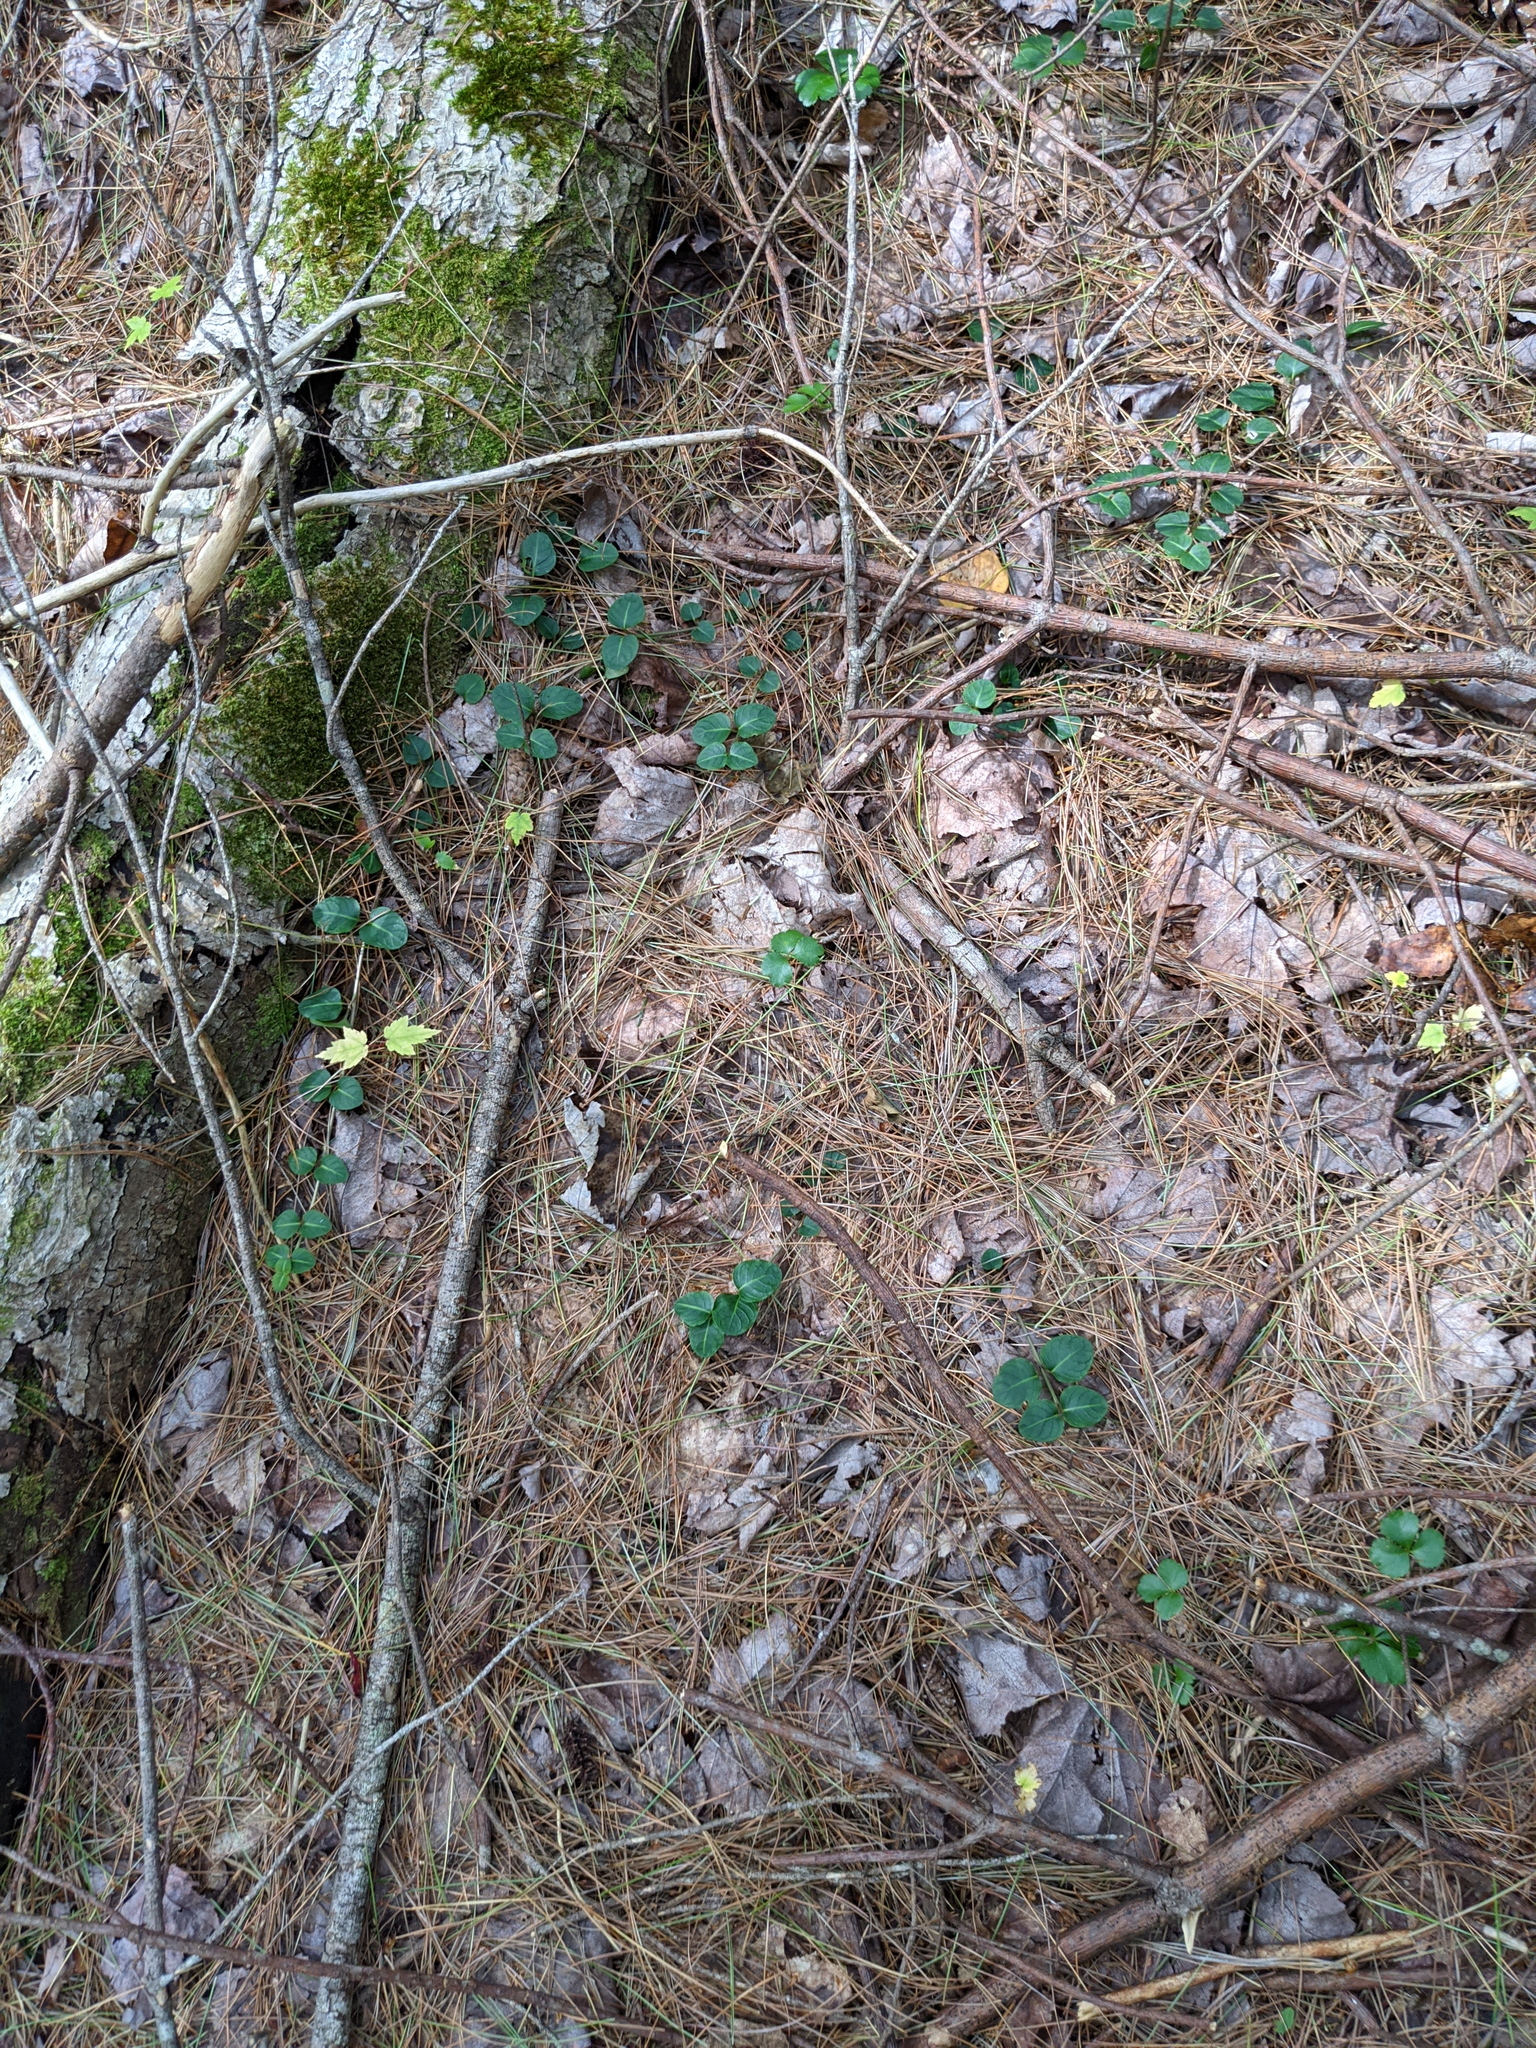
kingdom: Plantae
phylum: Tracheophyta
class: Magnoliopsida
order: Gentianales
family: Rubiaceae
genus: Mitchella
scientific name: Mitchella repens
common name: Partridge-berry
